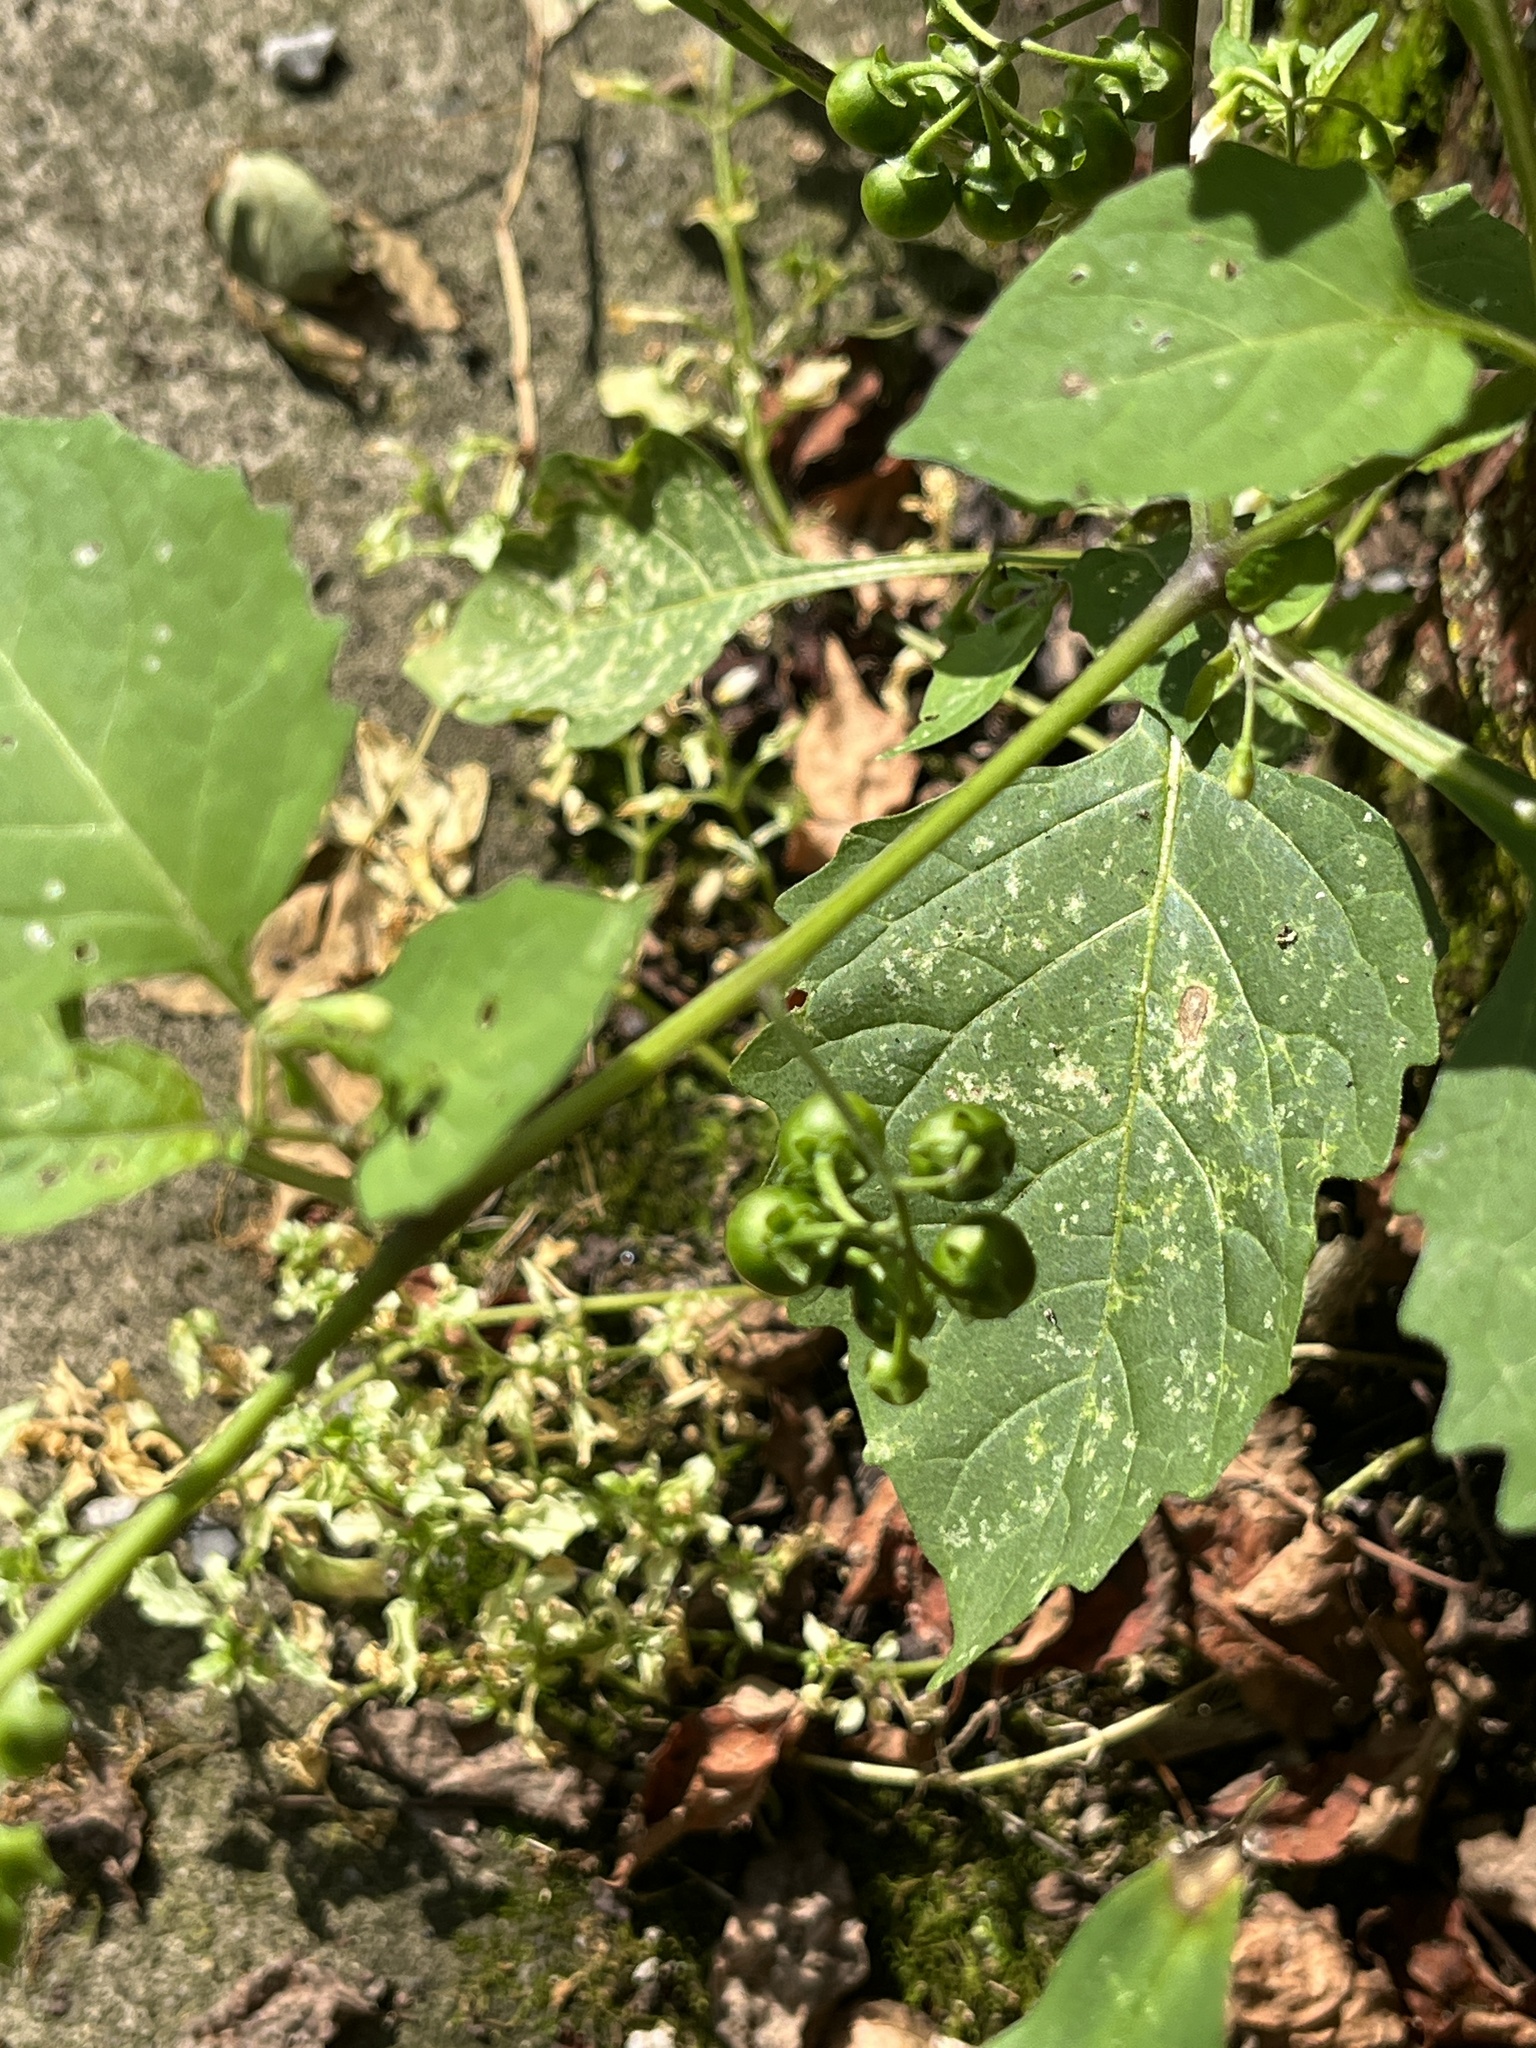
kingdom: Plantae
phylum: Tracheophyta
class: Magnoliopsida
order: Solanales
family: Solanaceae
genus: Solanum
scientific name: Solanum emulans
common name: Eastern black nightshade
